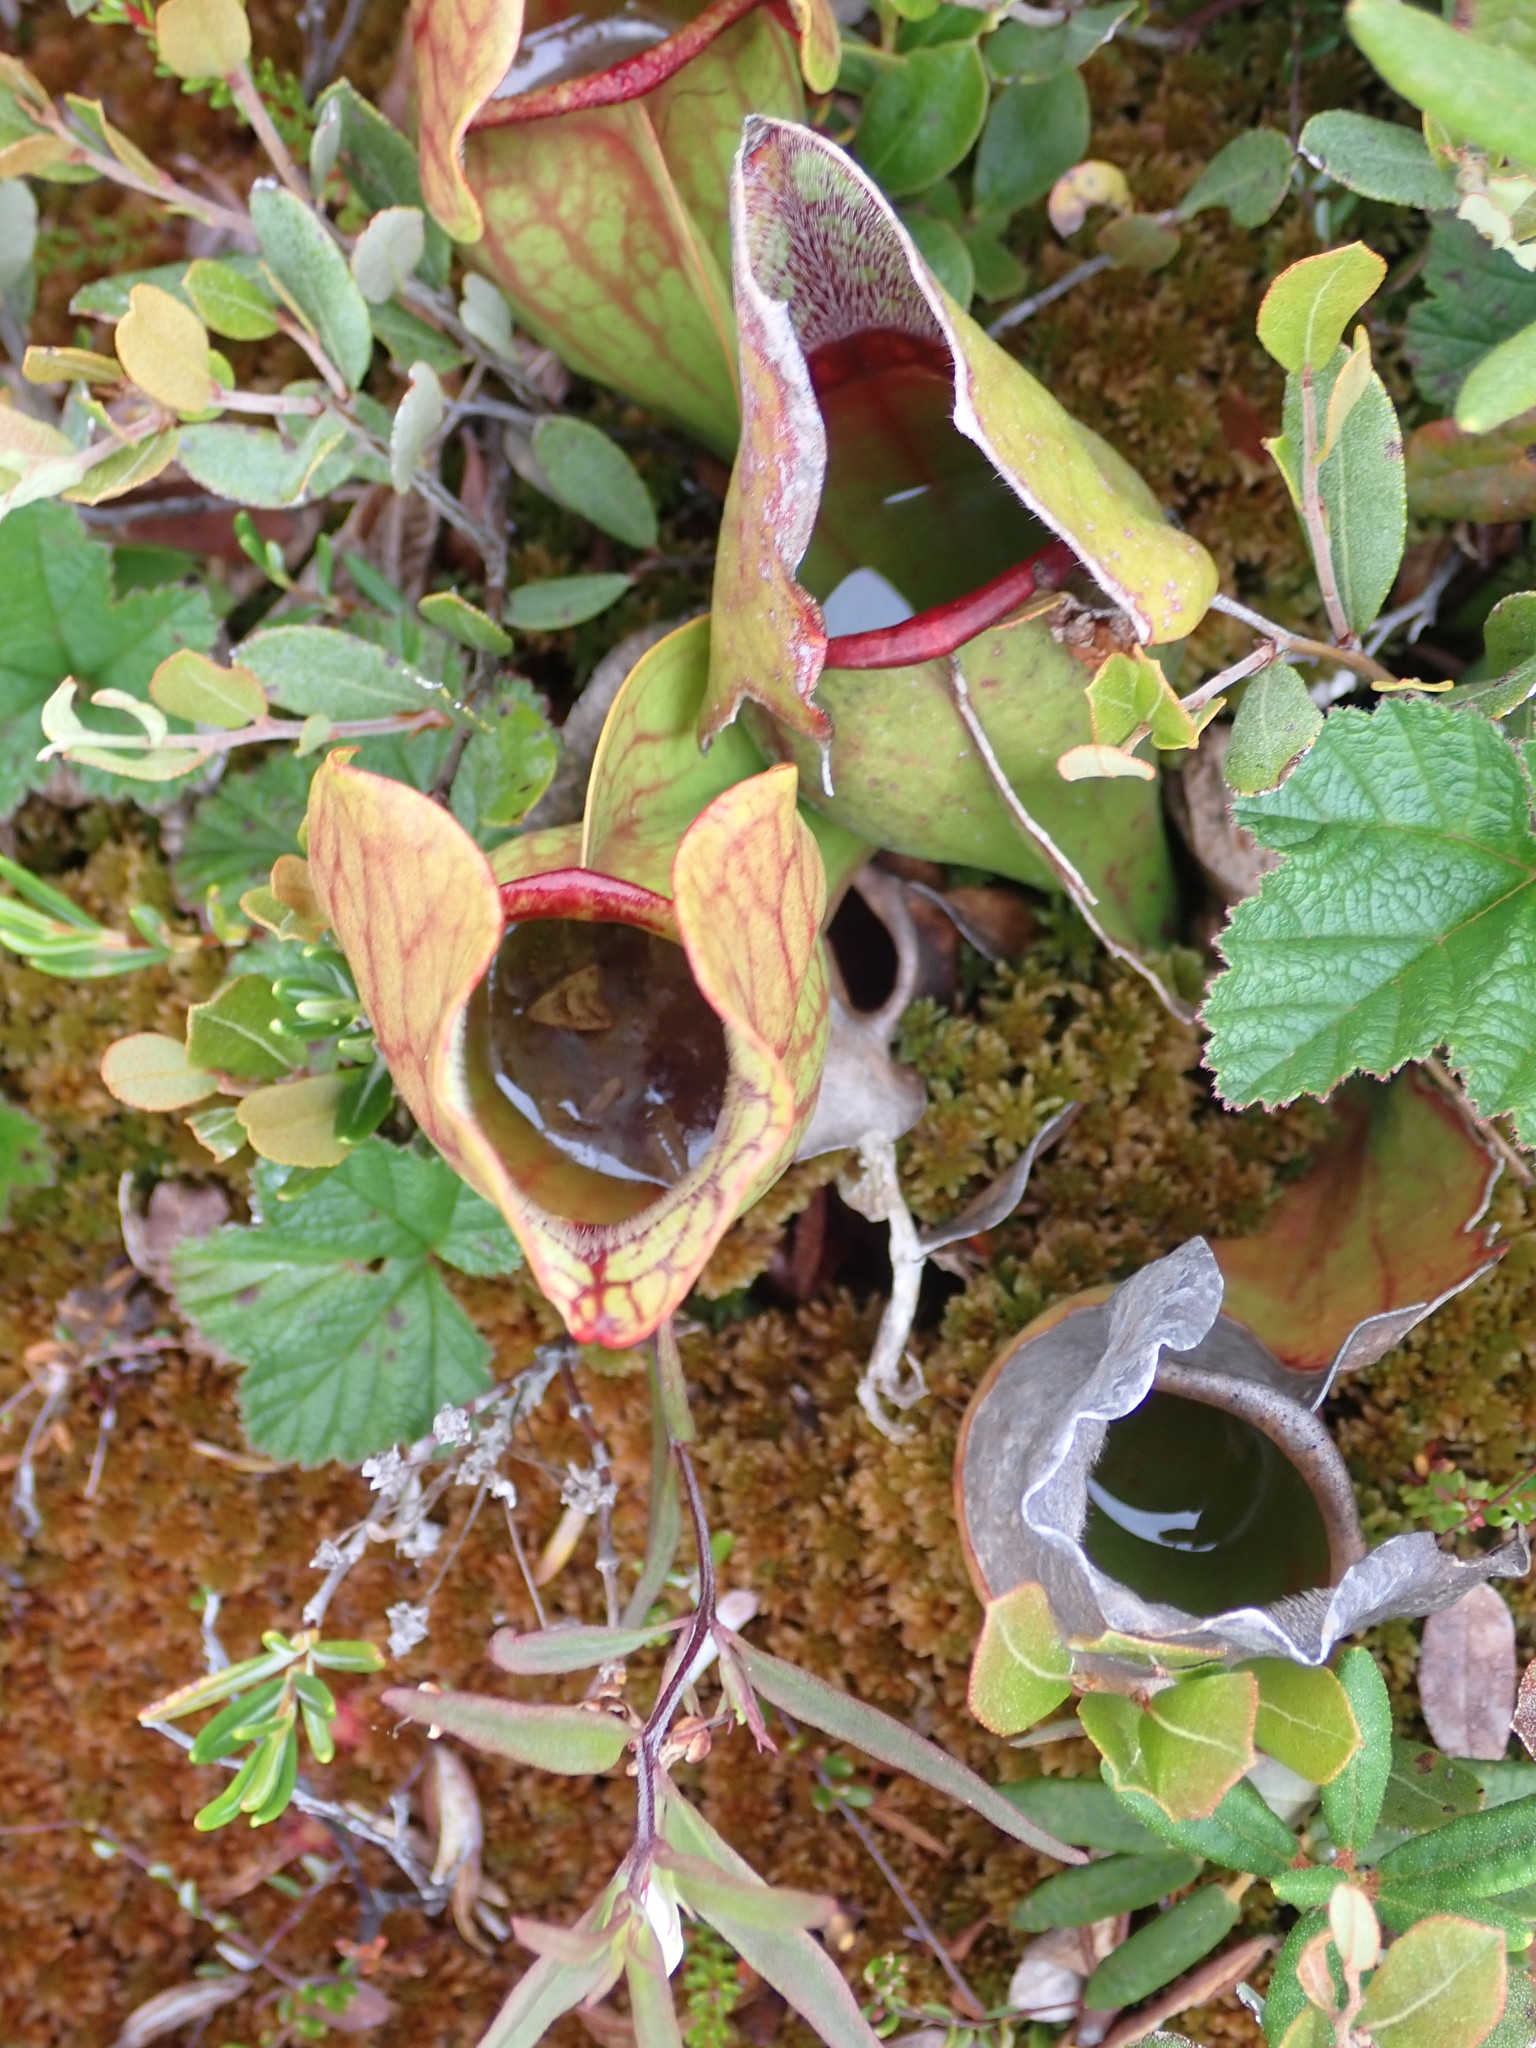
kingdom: Plantae
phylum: Tracheophyta
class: Magnoliopsida
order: Ericales
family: Sarraceniaceae
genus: Sarracenia
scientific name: Sarracenia purpurea
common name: Pitcherplant
